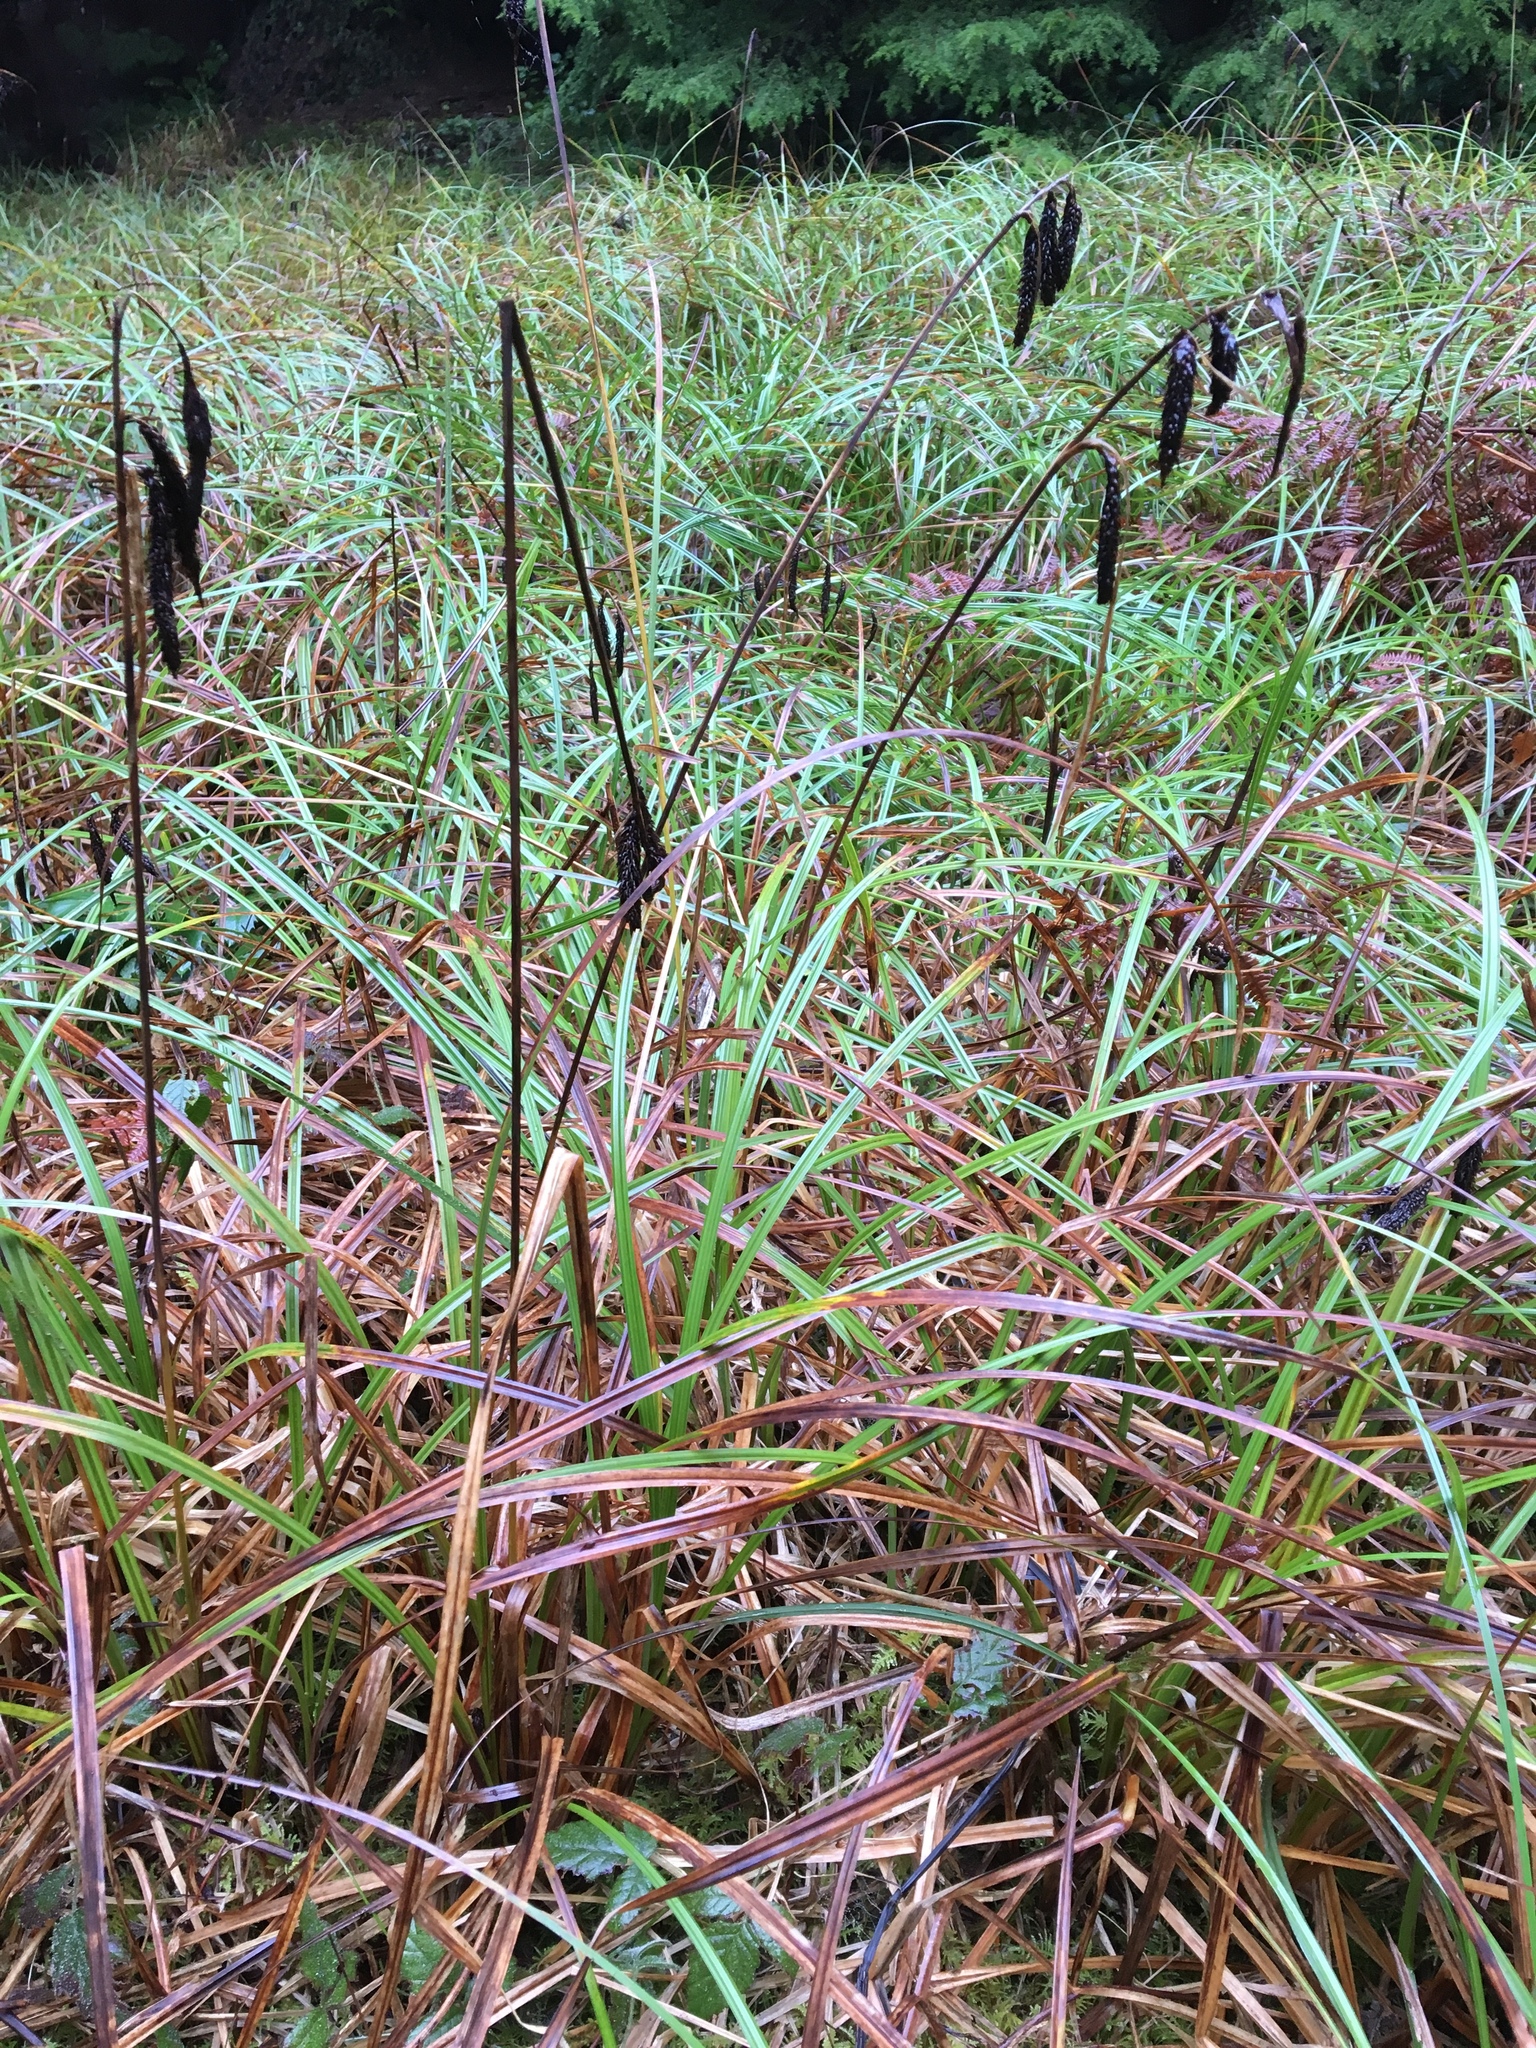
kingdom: Plantae
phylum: Tracheophyta
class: Liliopsida
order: Poales
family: Cyperaceae
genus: Carex
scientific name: Carex obnupta
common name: Slough sedge
